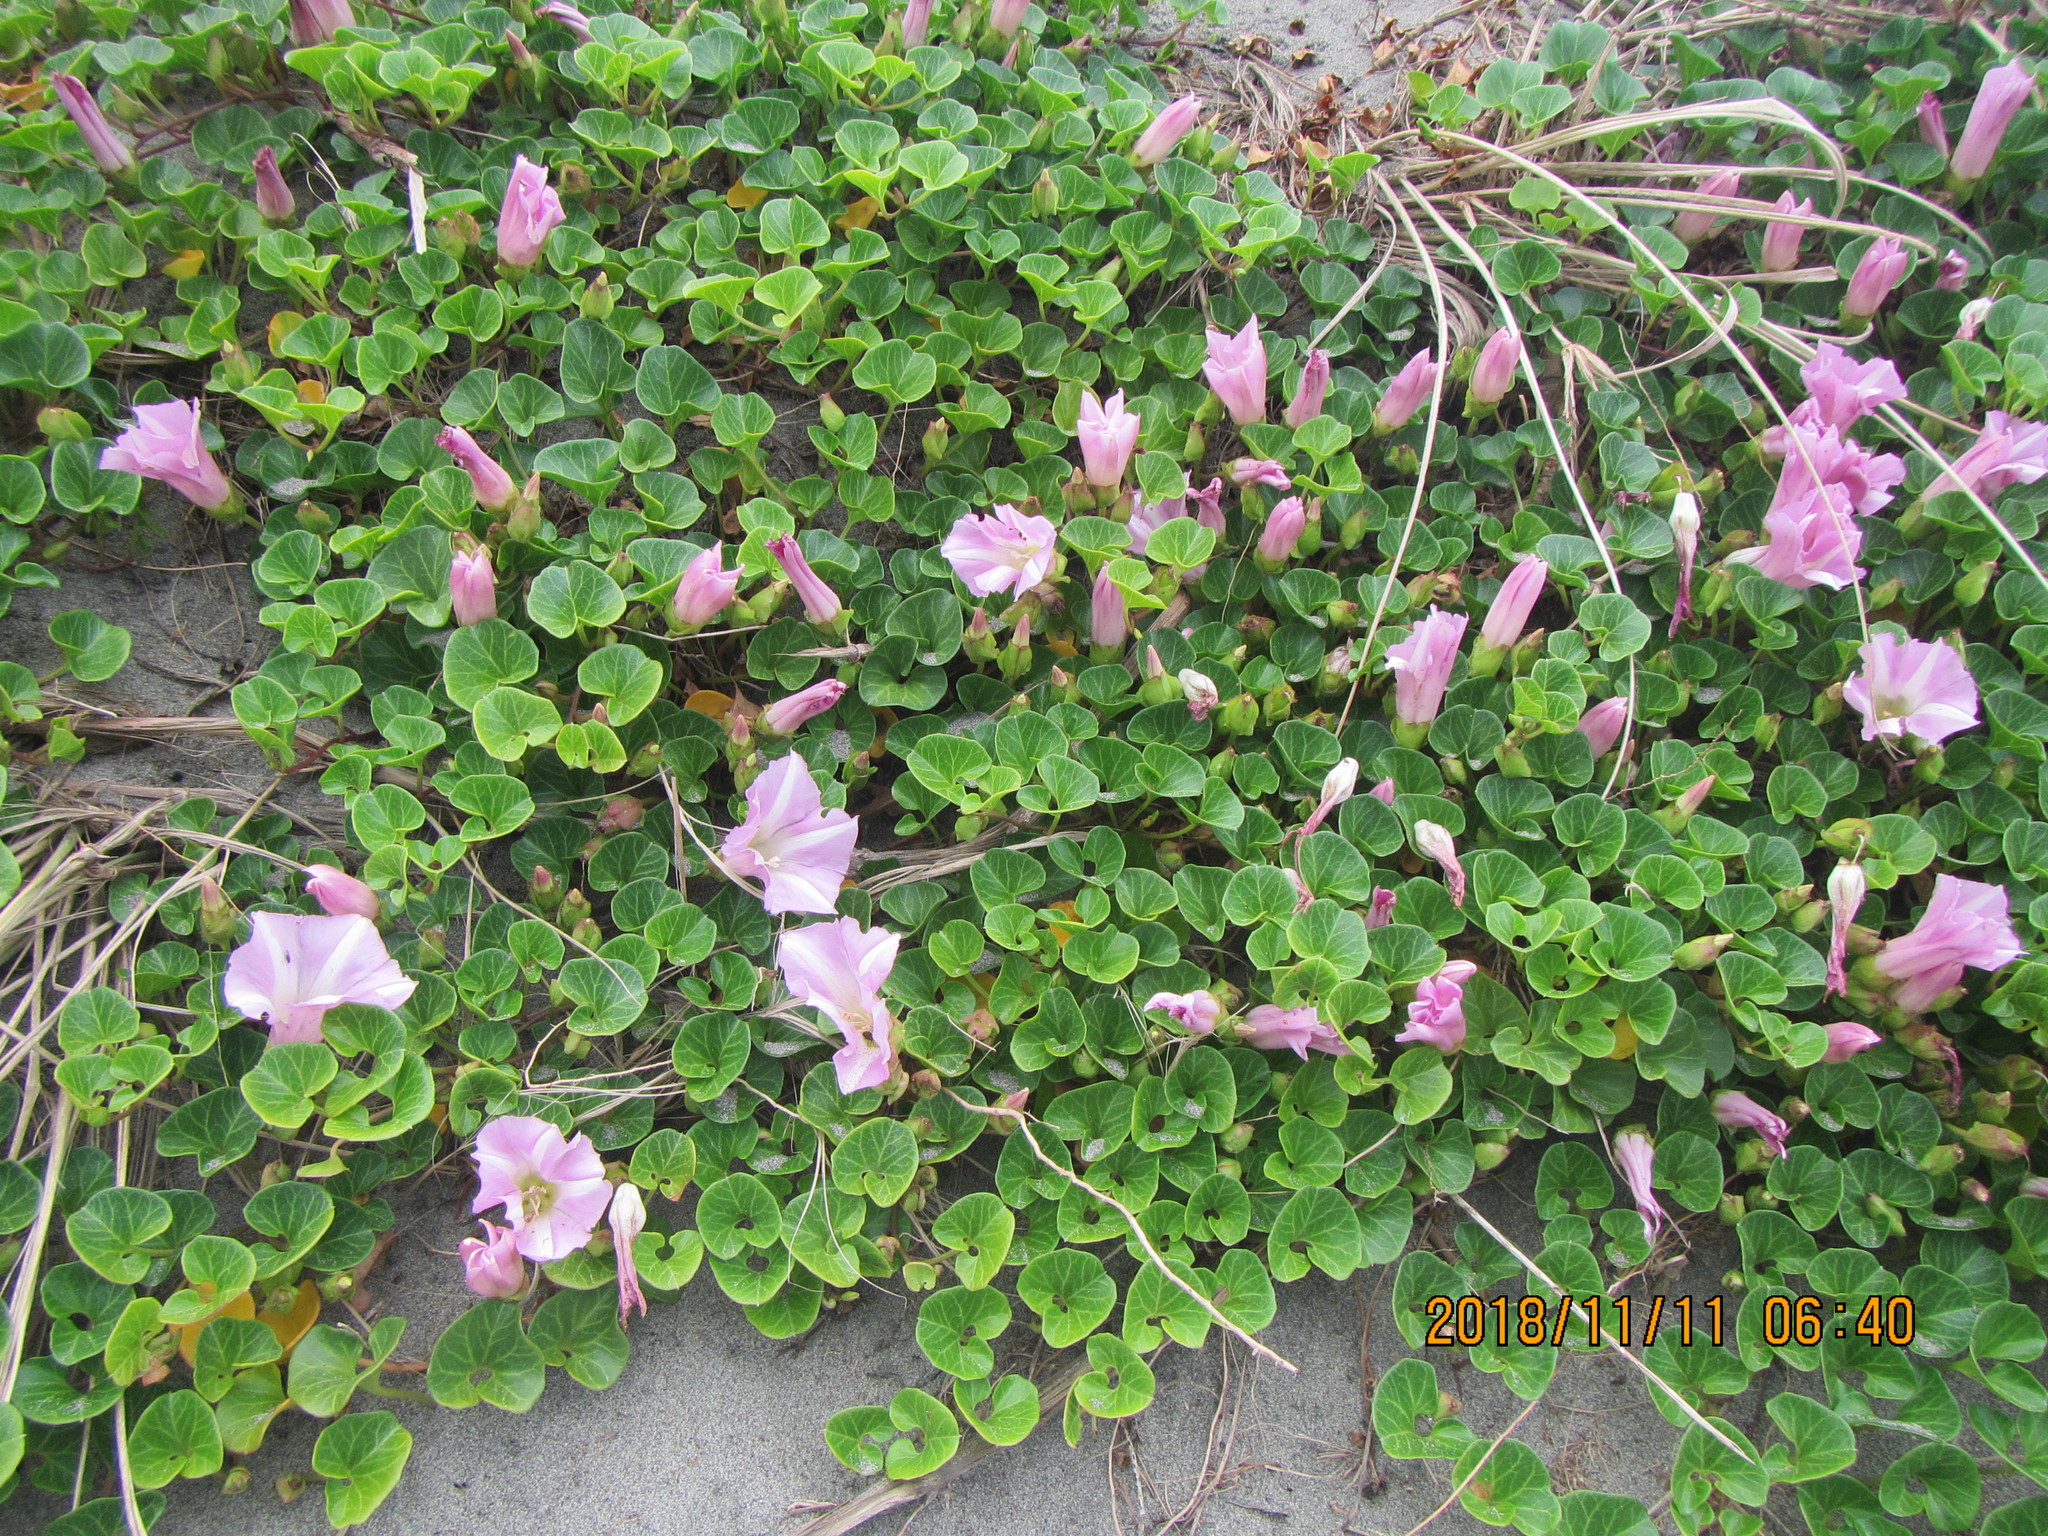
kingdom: Plantae
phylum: Tracheophyta
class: Magnoliopsida
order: Solanales
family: Convolvulaceae
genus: Calystegia
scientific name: Calystegia soldanella
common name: Sea bindweed
